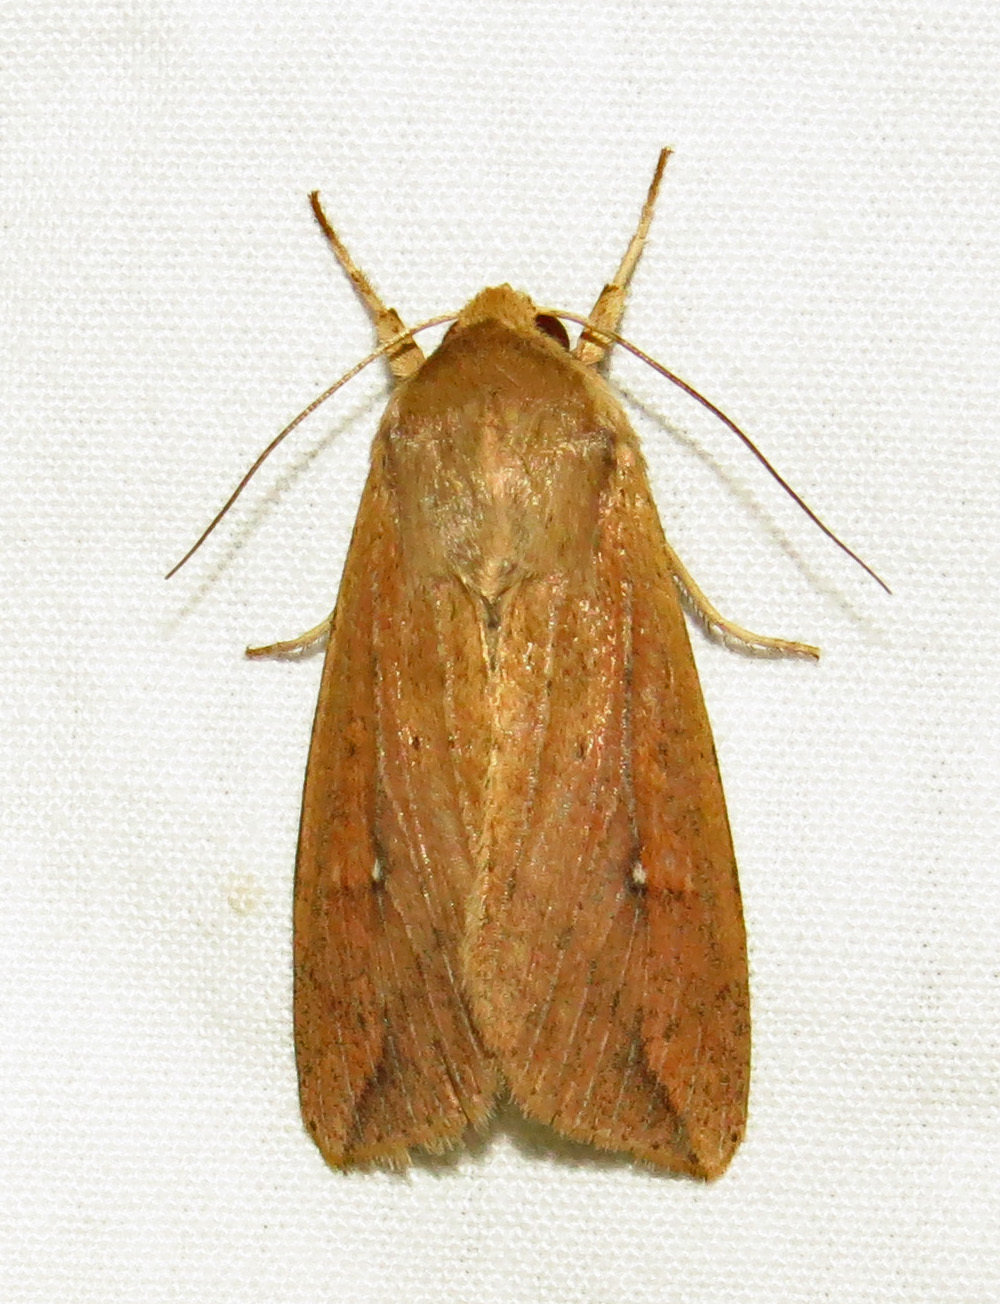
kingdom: Animalia
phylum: Arthropoda
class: Insecta
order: Lepidoptera
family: Noctuidae
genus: Mythimna
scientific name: Mythimna unipuncta
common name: White-speck
